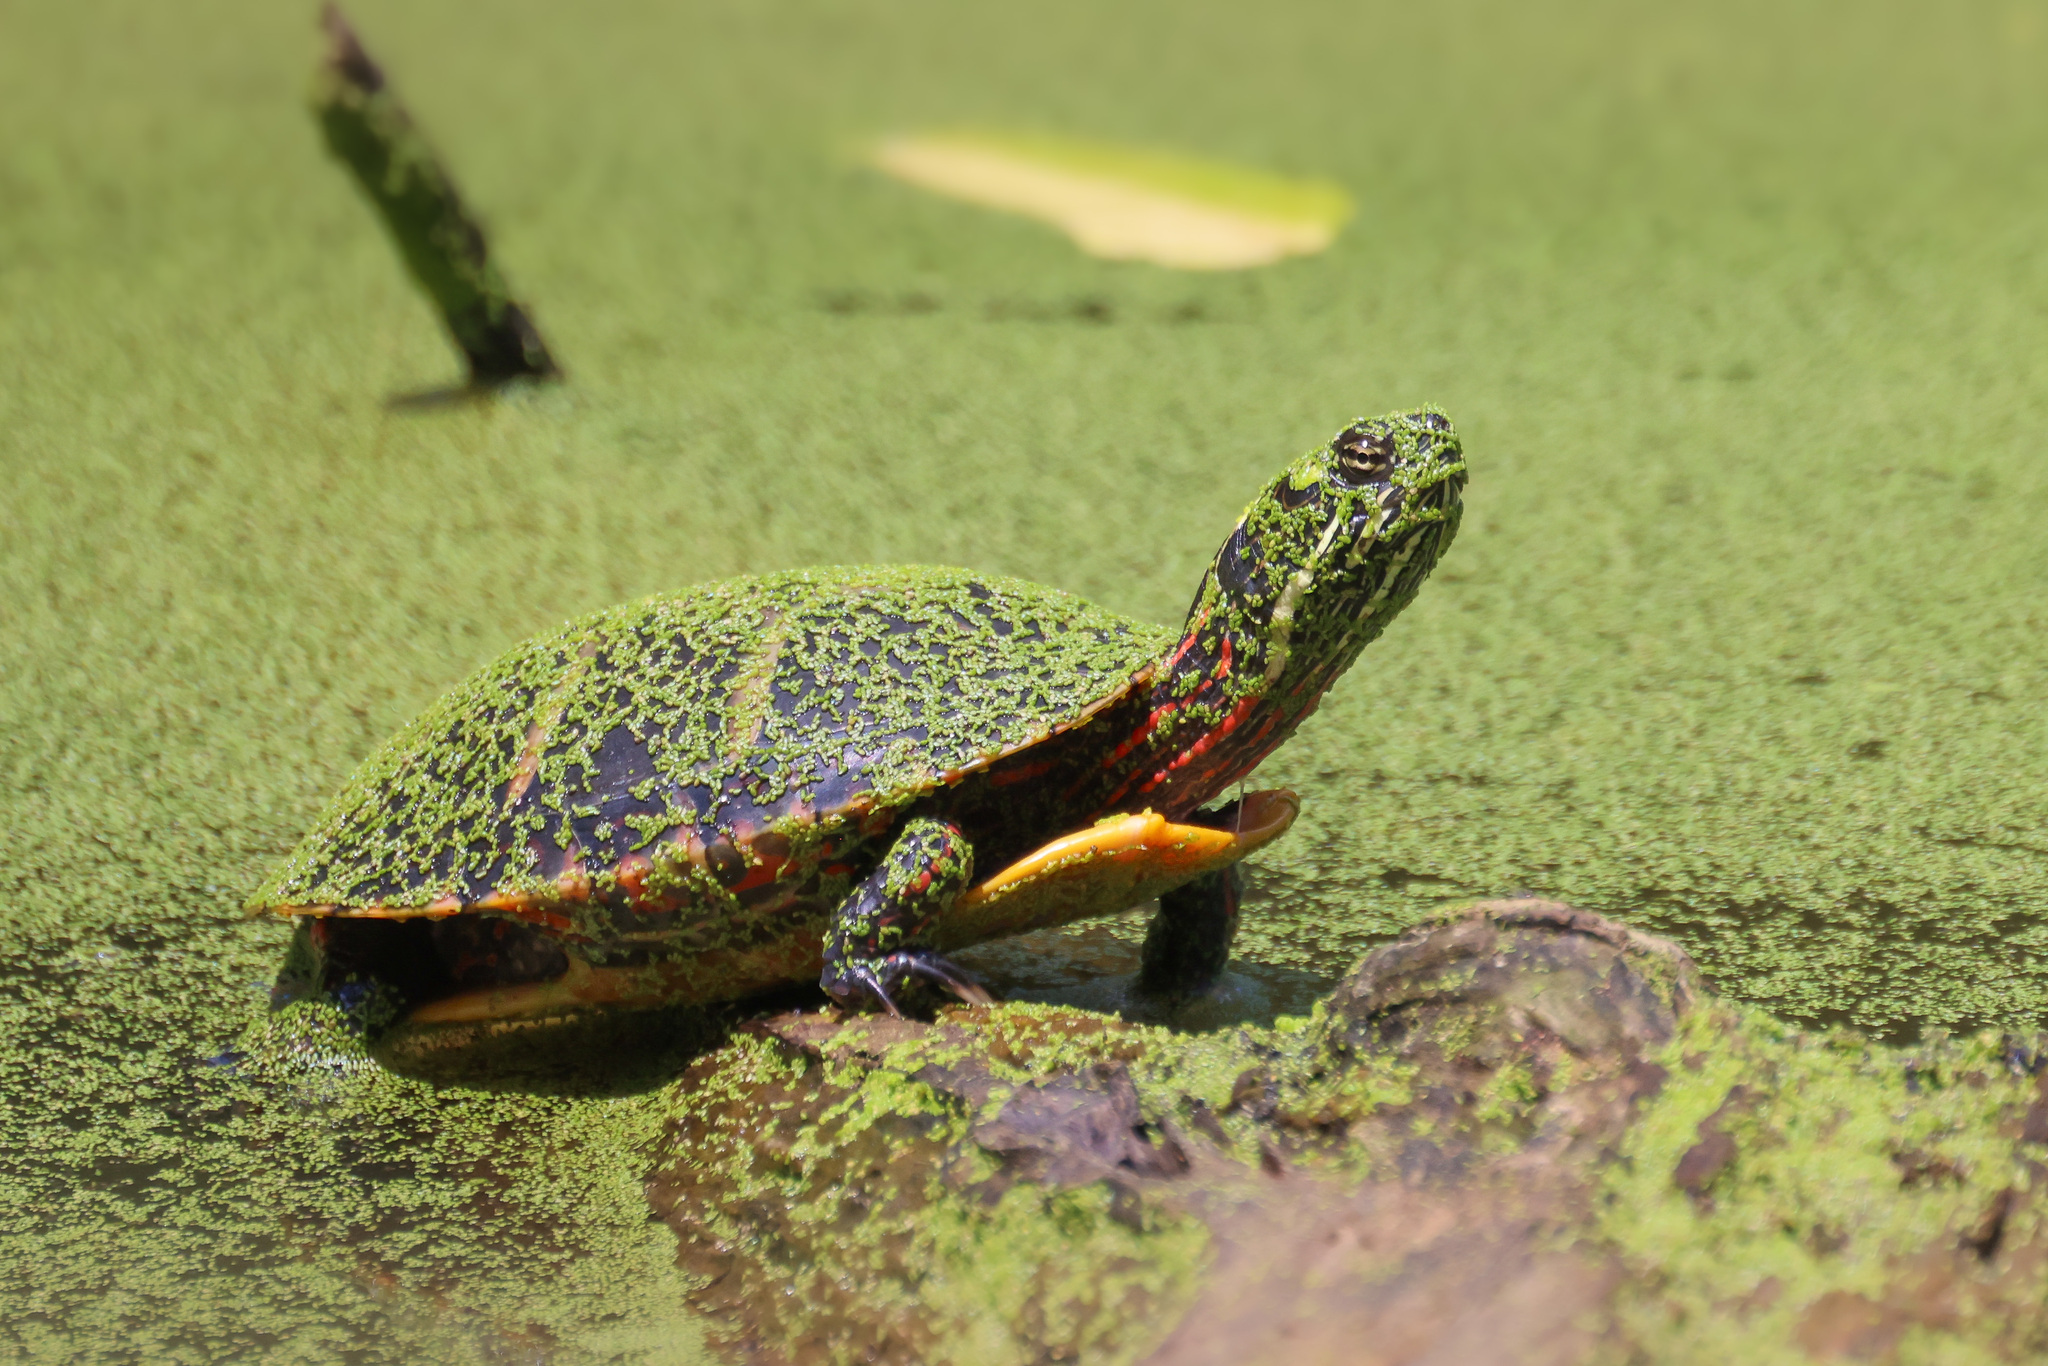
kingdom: Animalia
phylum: Chordata
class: Testudines
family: Emydidae
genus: Chrysemys
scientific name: Chrysemys picta
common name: Painted turtle
